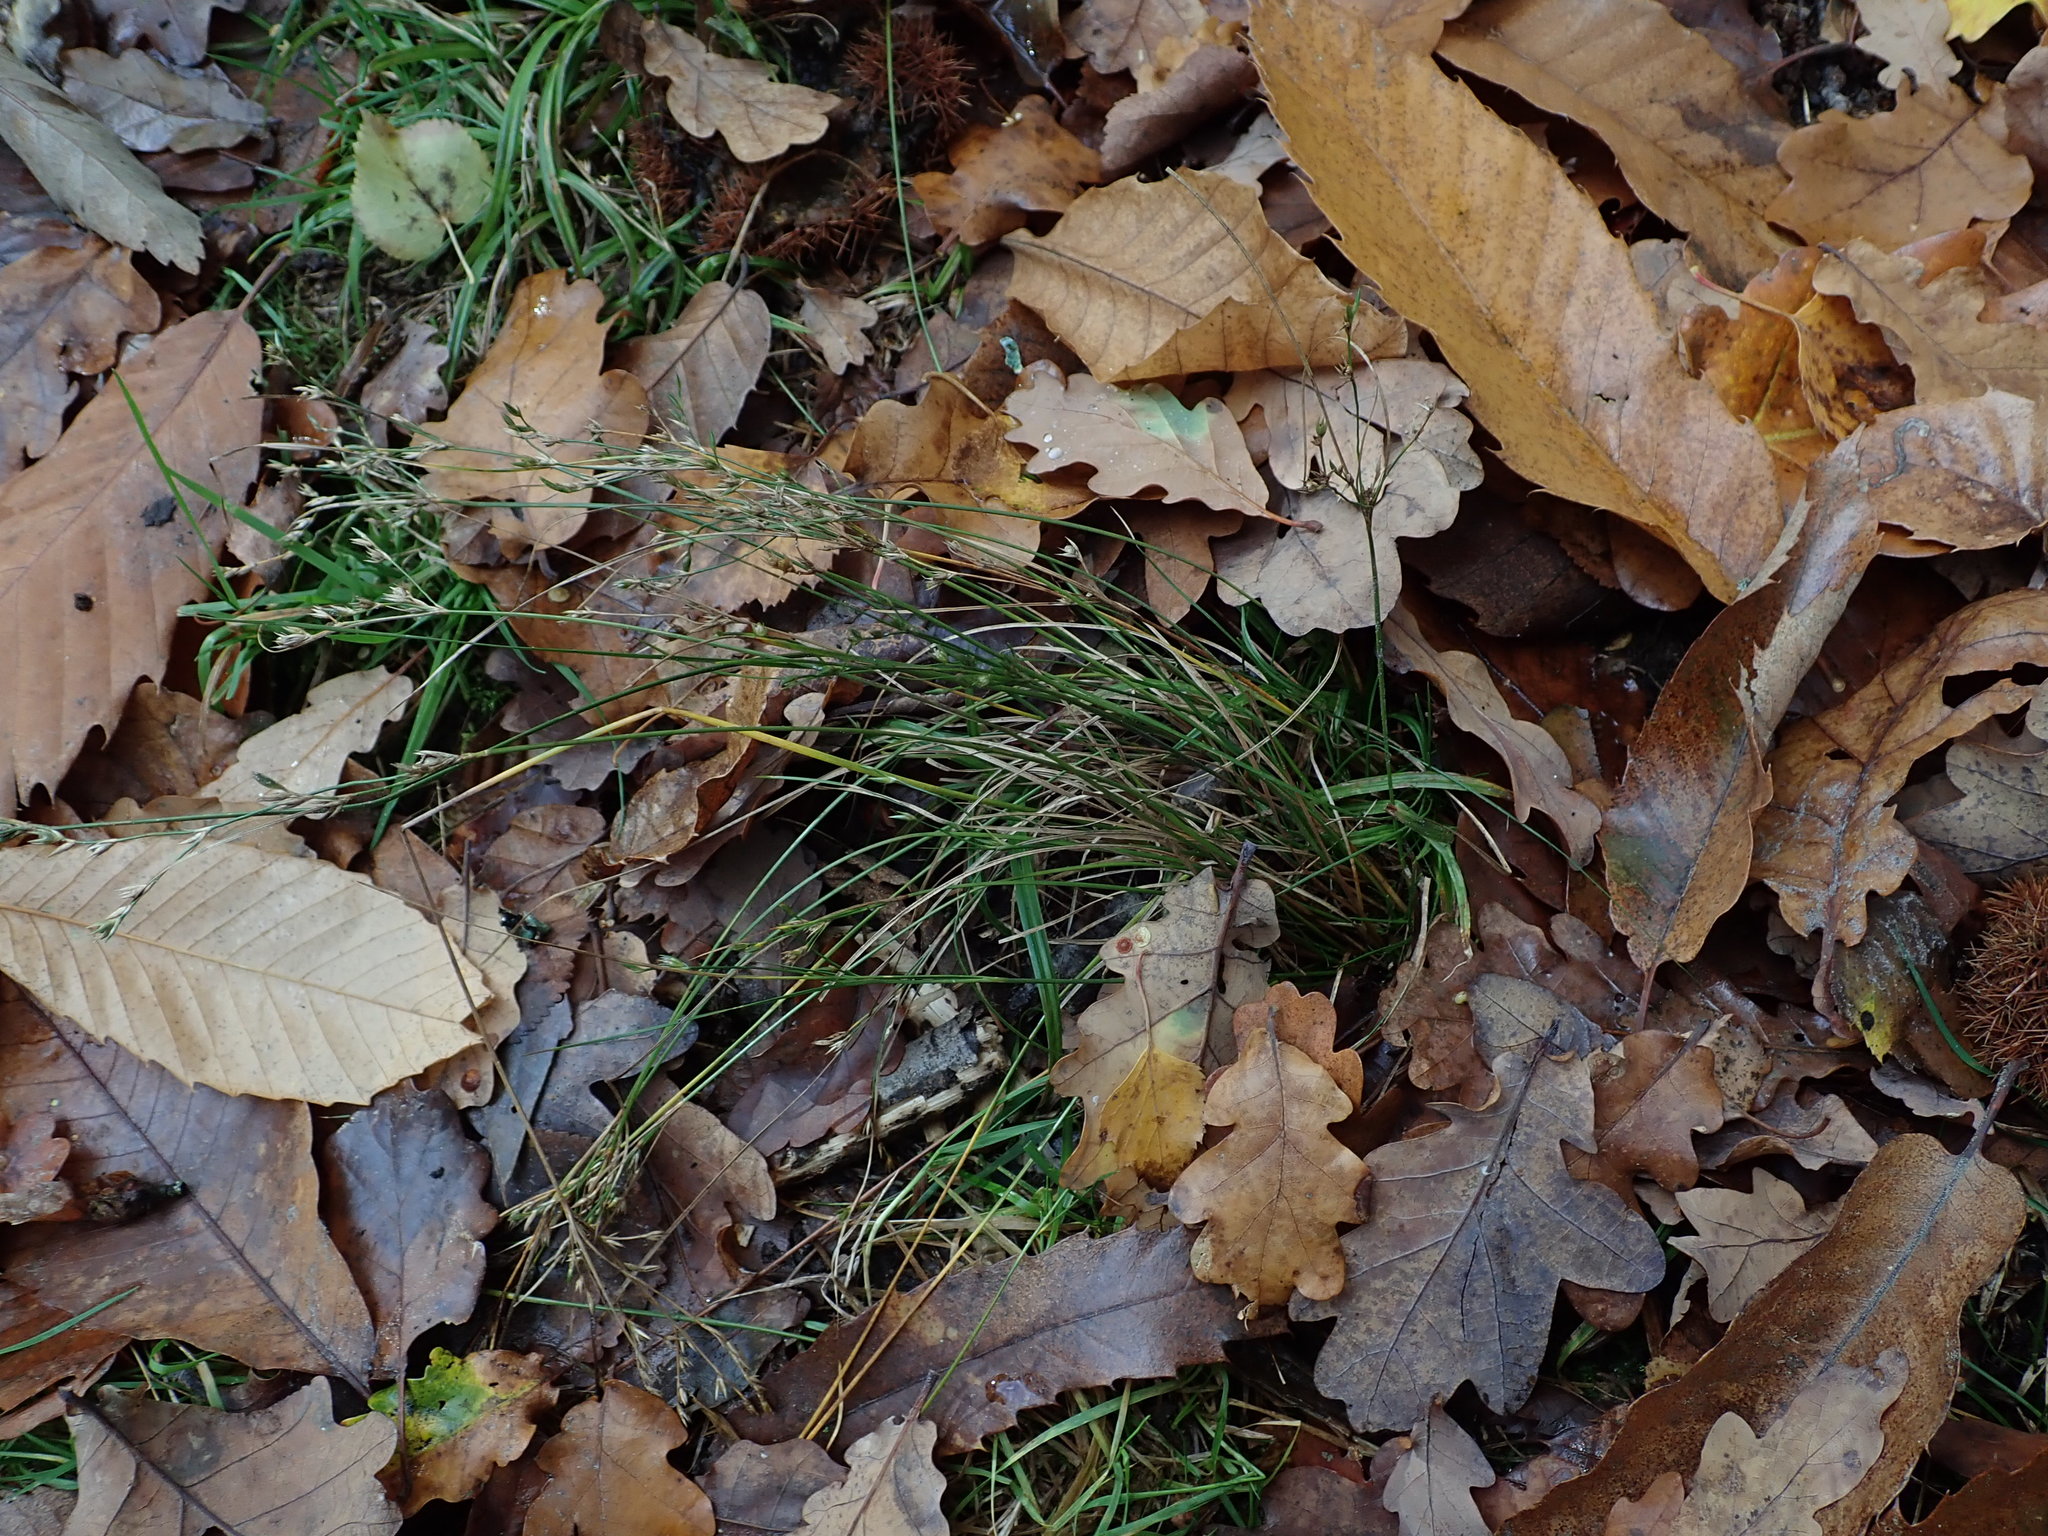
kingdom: Plantae
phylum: Tracheophyta
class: Liliopsida
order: Poales
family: Juncaceae
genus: Juncus
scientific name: Juncus tenuis
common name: Slender rush
